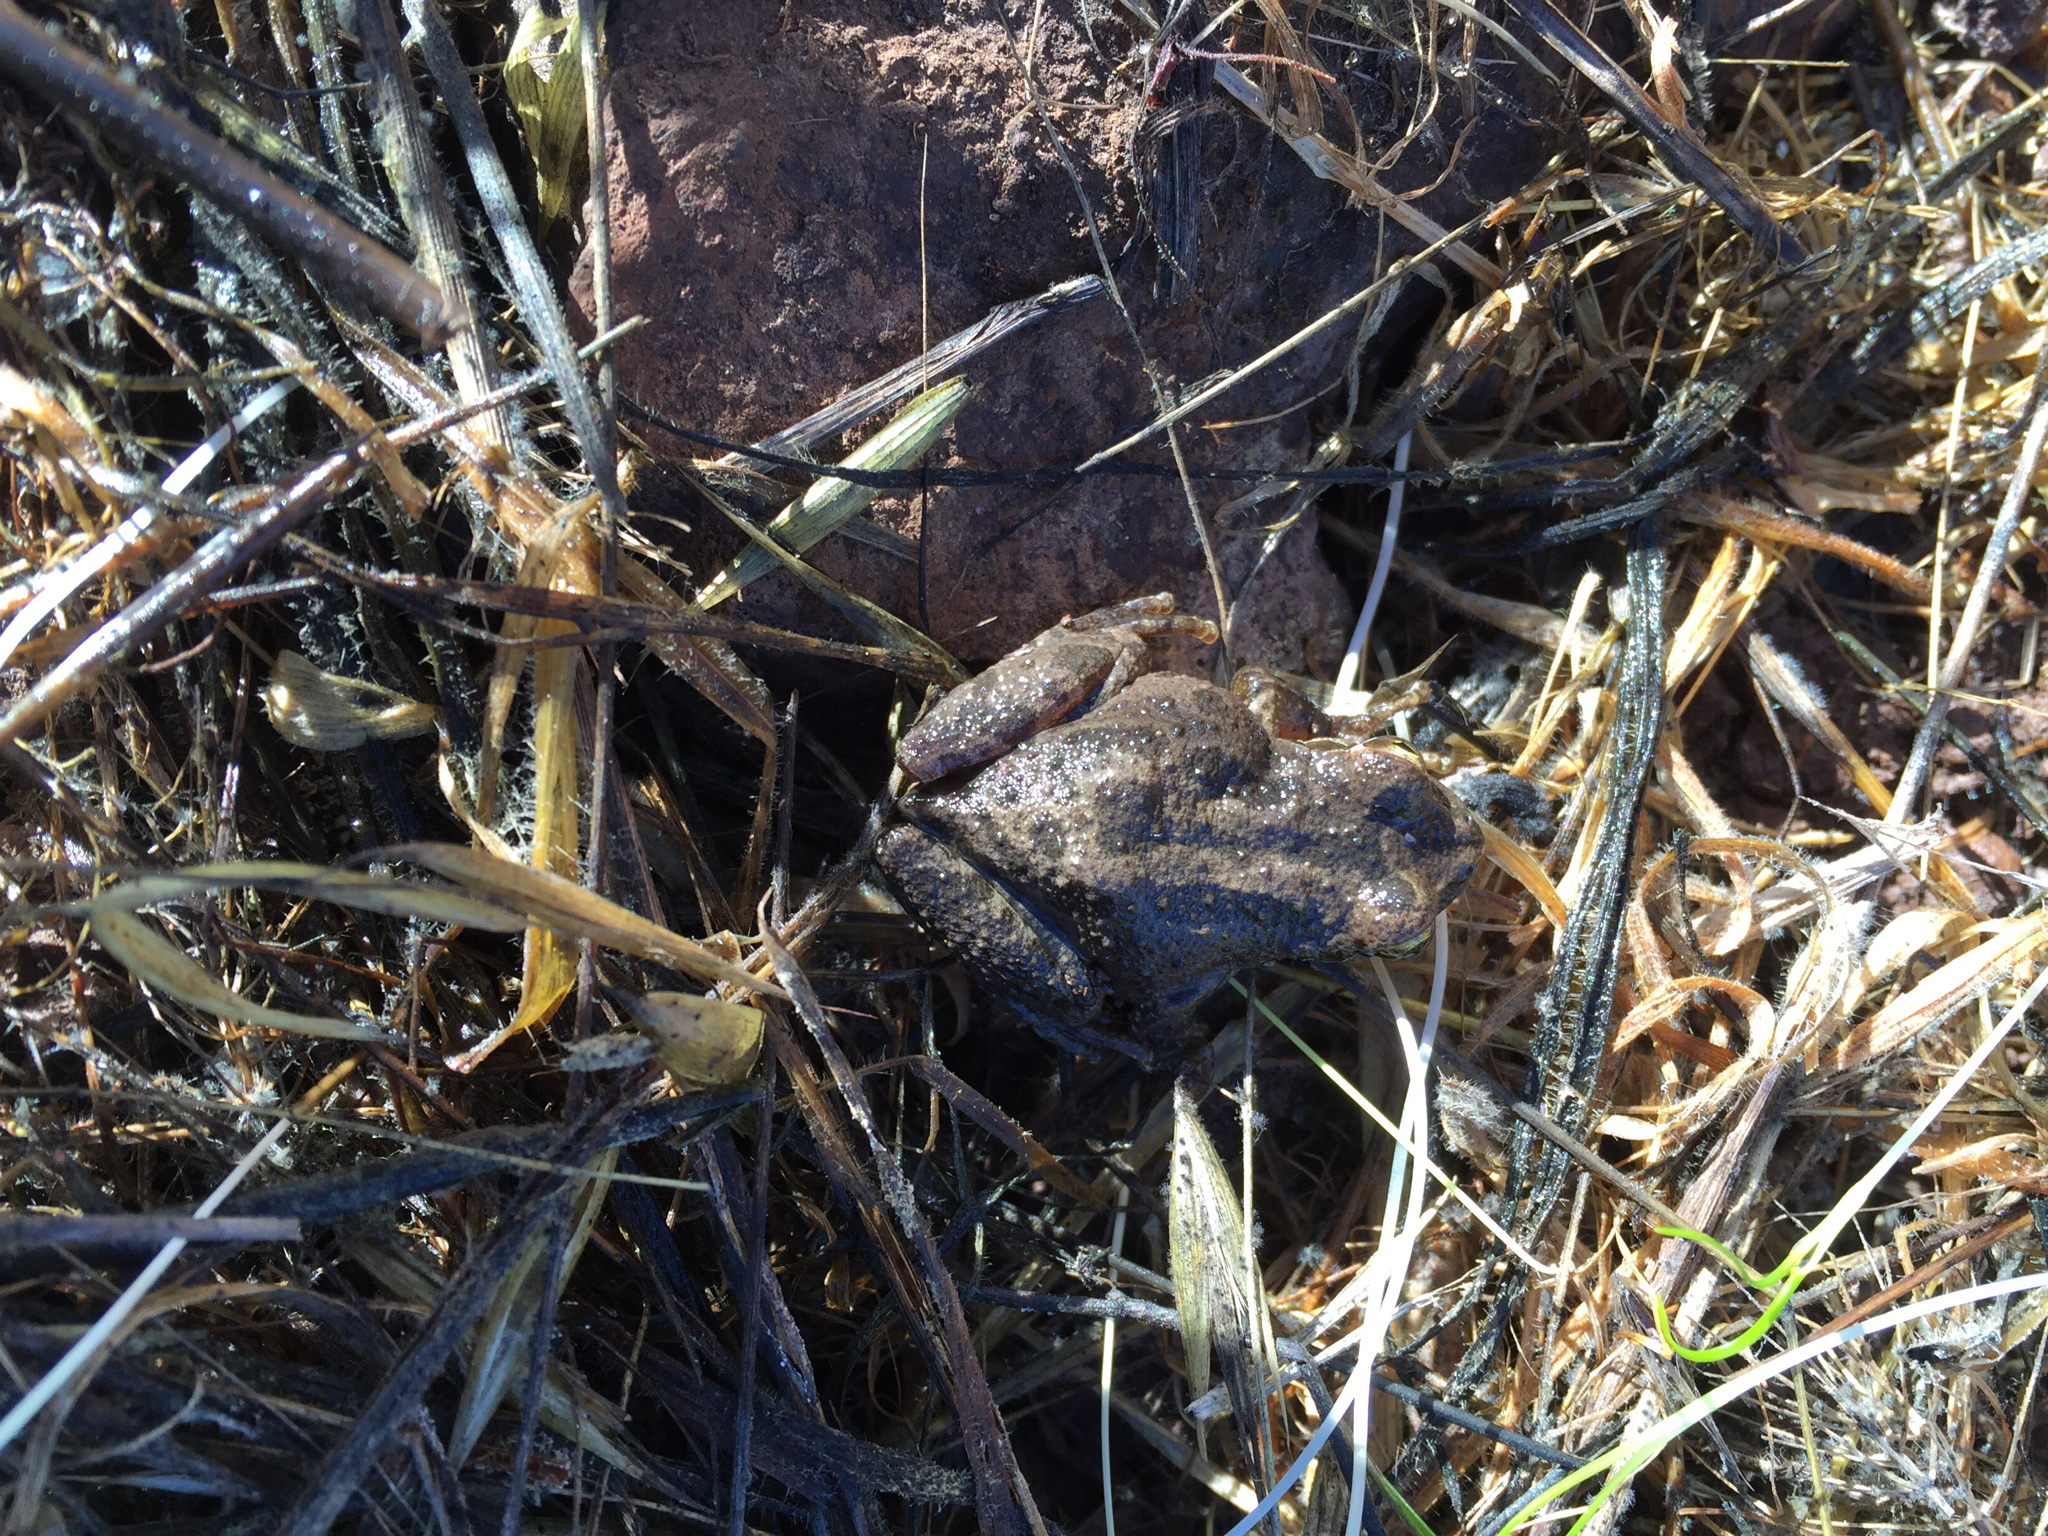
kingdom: Animalia
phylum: Chordata
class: Amphibia
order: Anura
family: Hylidae
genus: Pseudacris
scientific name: Pseudacris regilla
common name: Pacific chorus frog
